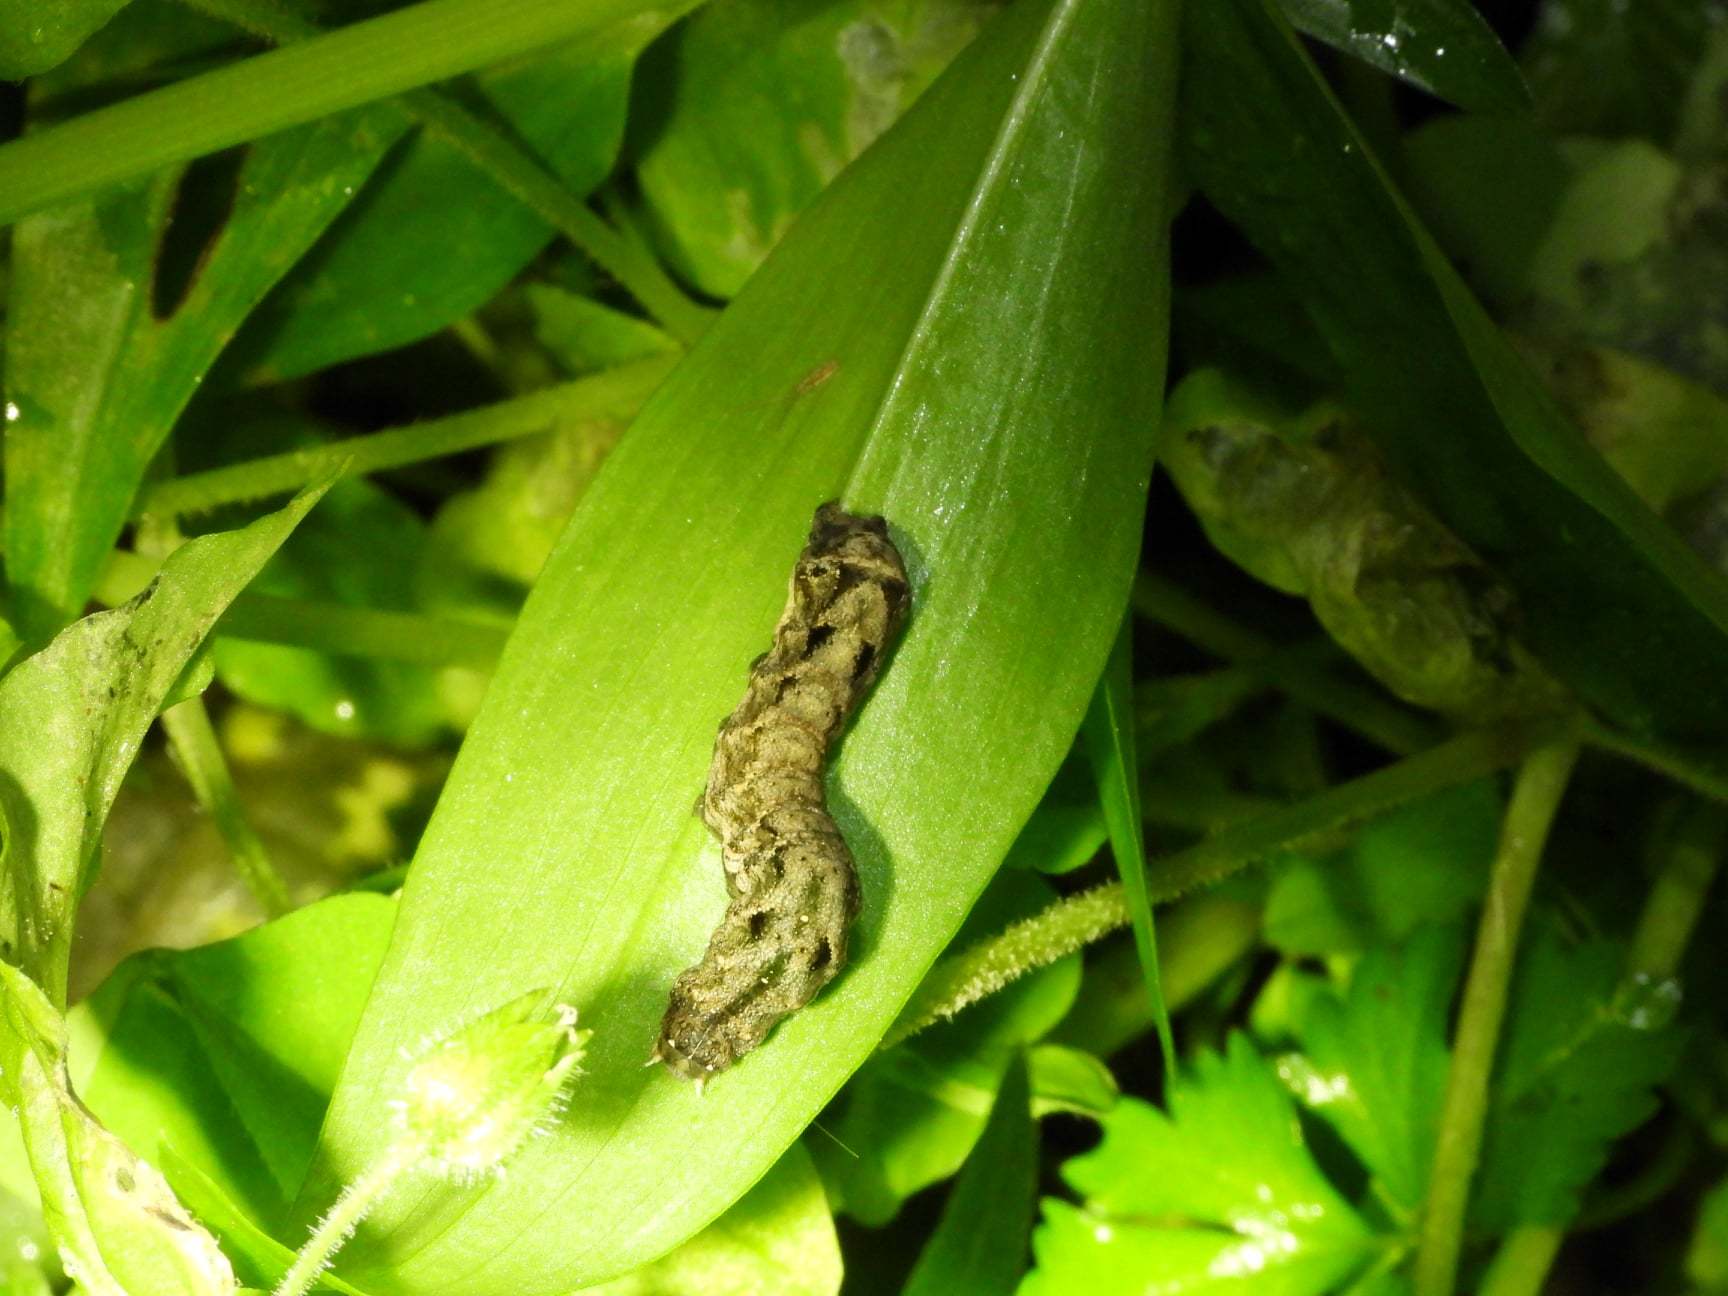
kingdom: Animalia
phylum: Arthropoda
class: Insecta
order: Lepidoptera
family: Noctuidae
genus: Tiracola
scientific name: Tiracola aureata
